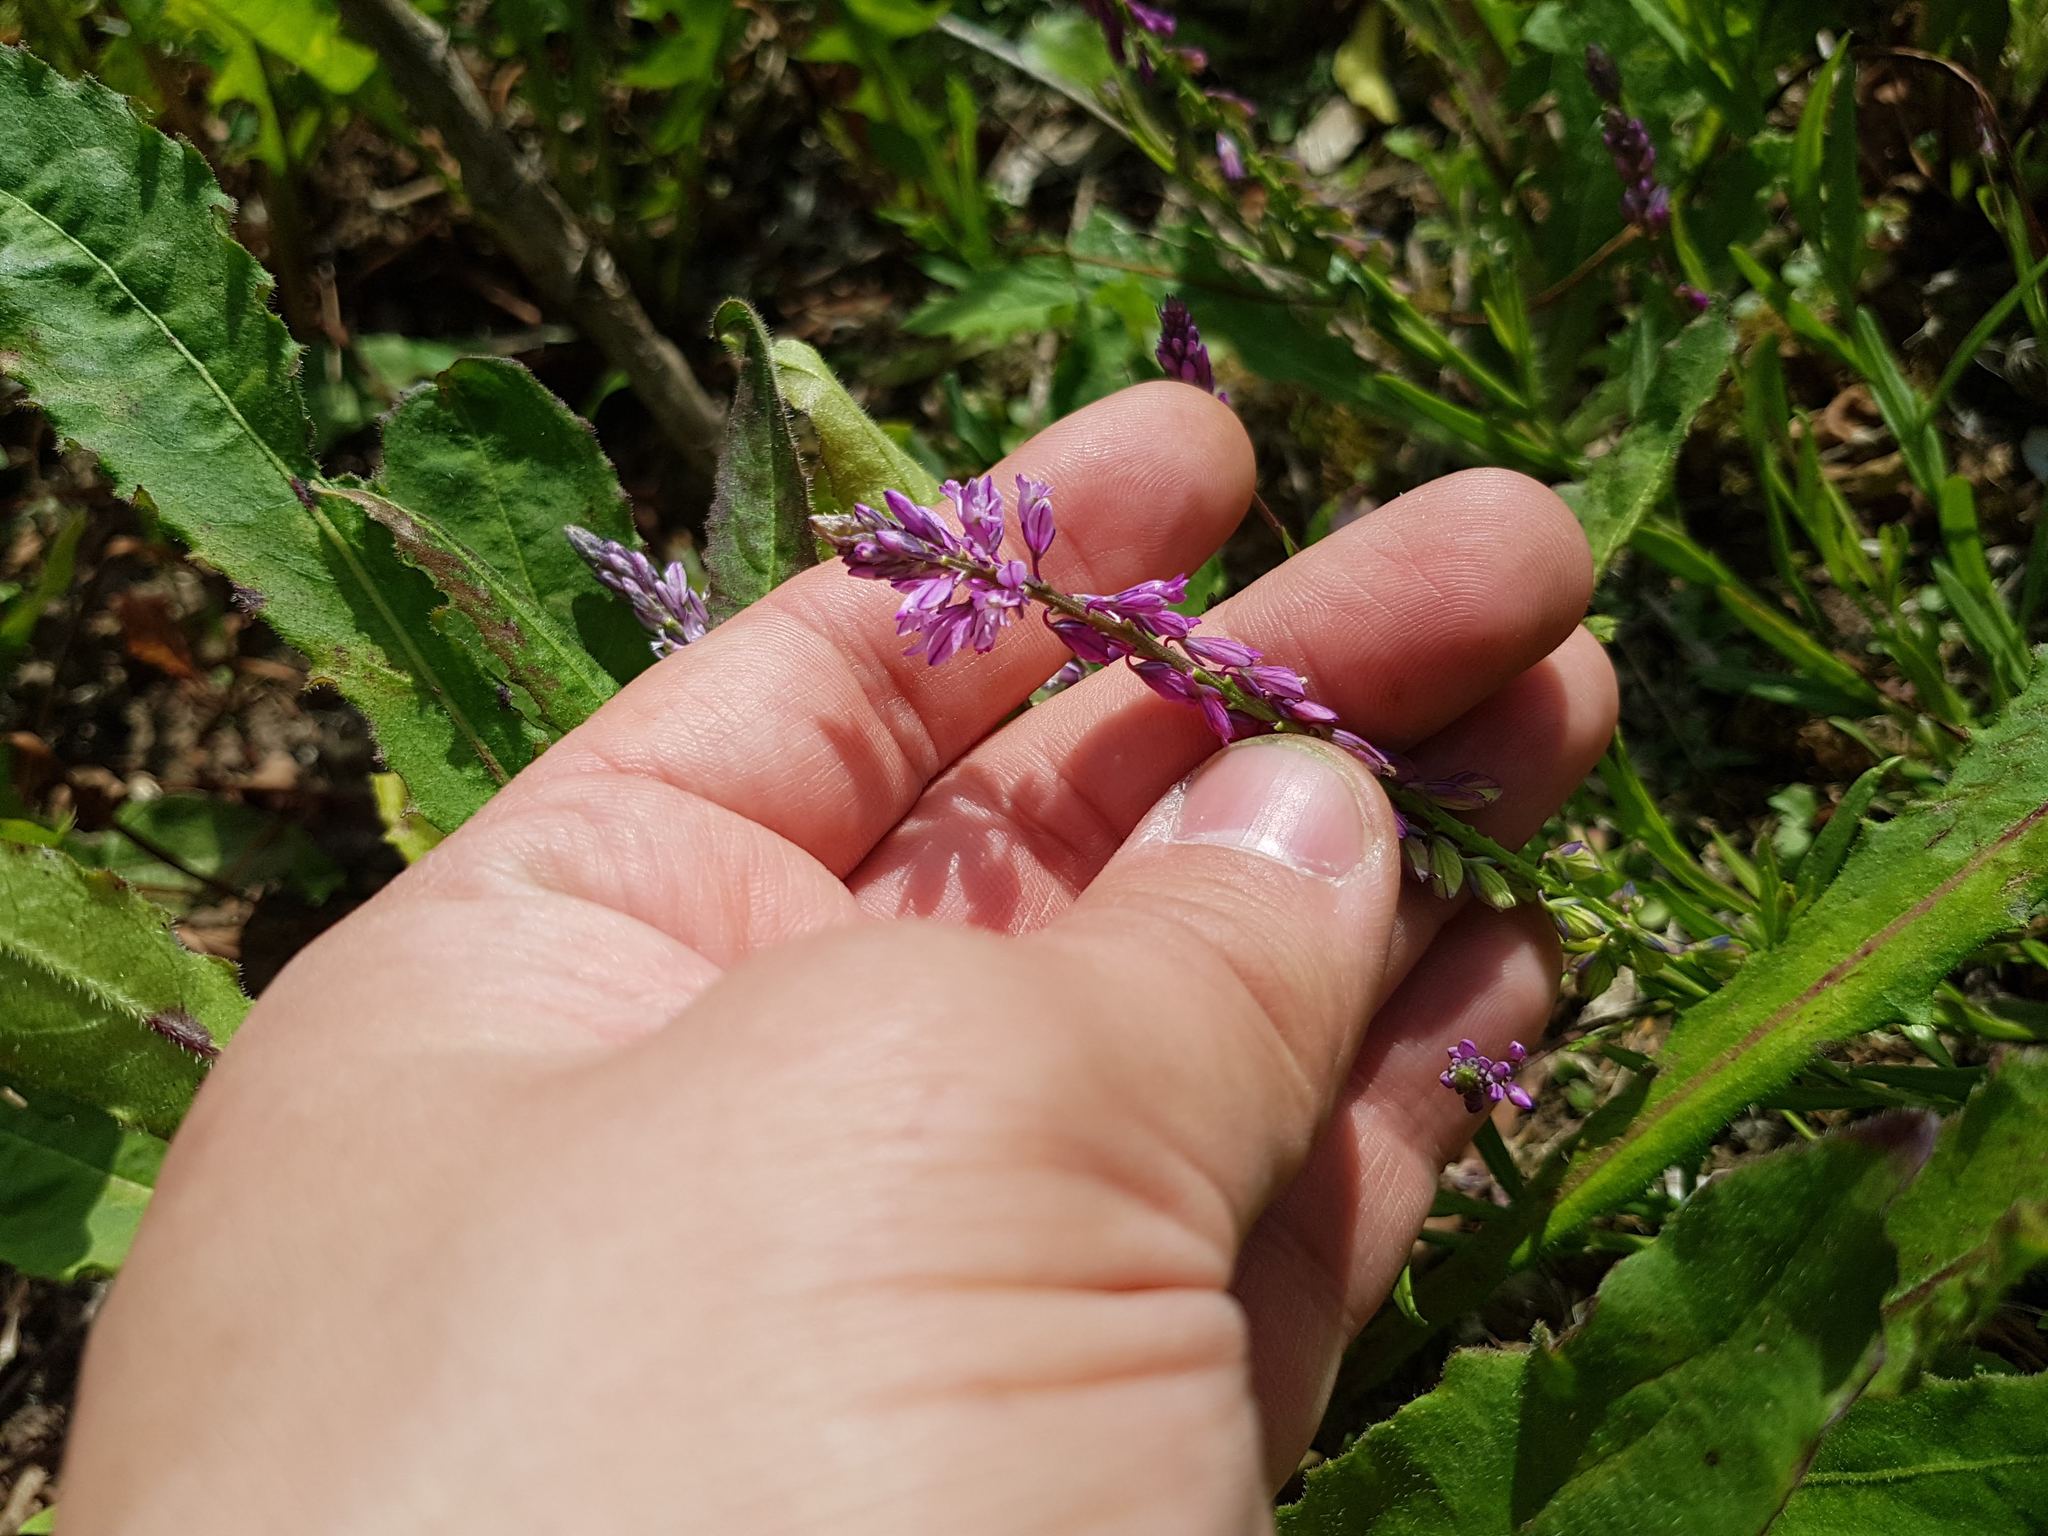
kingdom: Plantae
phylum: Tracheophyta
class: Magnoliopsida
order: Fabales
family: Polygalaceae
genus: Polygala
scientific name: Polygala comosa
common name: Tufted milkwort
